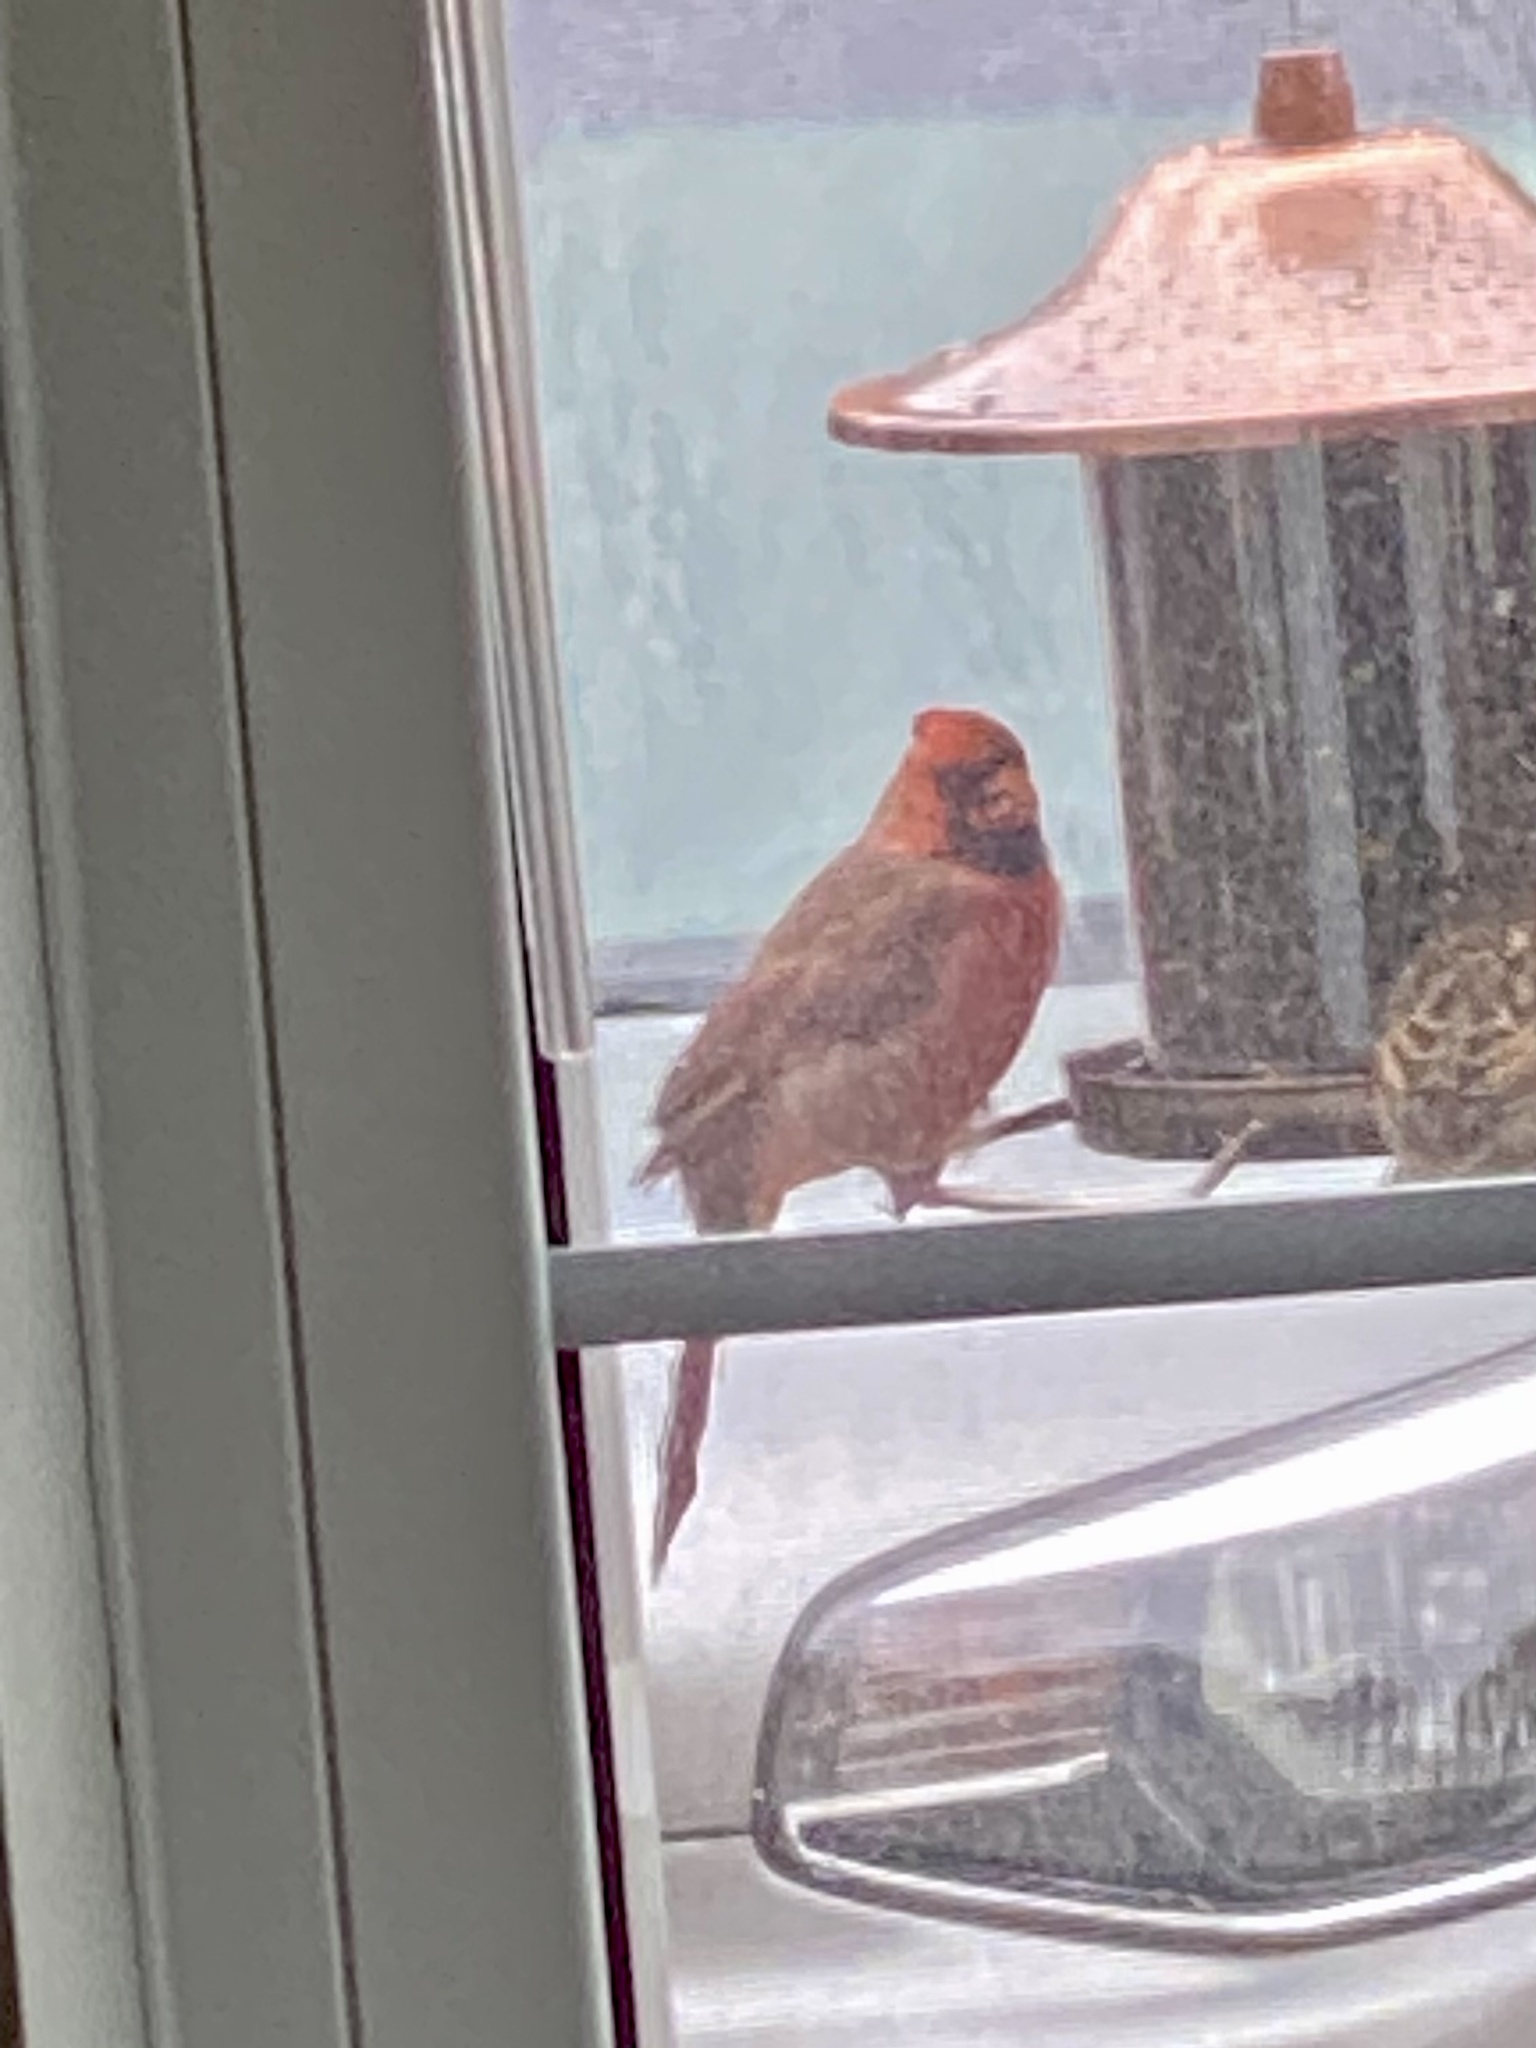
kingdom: Animalia
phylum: Chordata
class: Aves
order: Passeriformes
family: Cardinalidae
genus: Cardinalis
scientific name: Cardinalis cardinalis
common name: Northern cardinal
